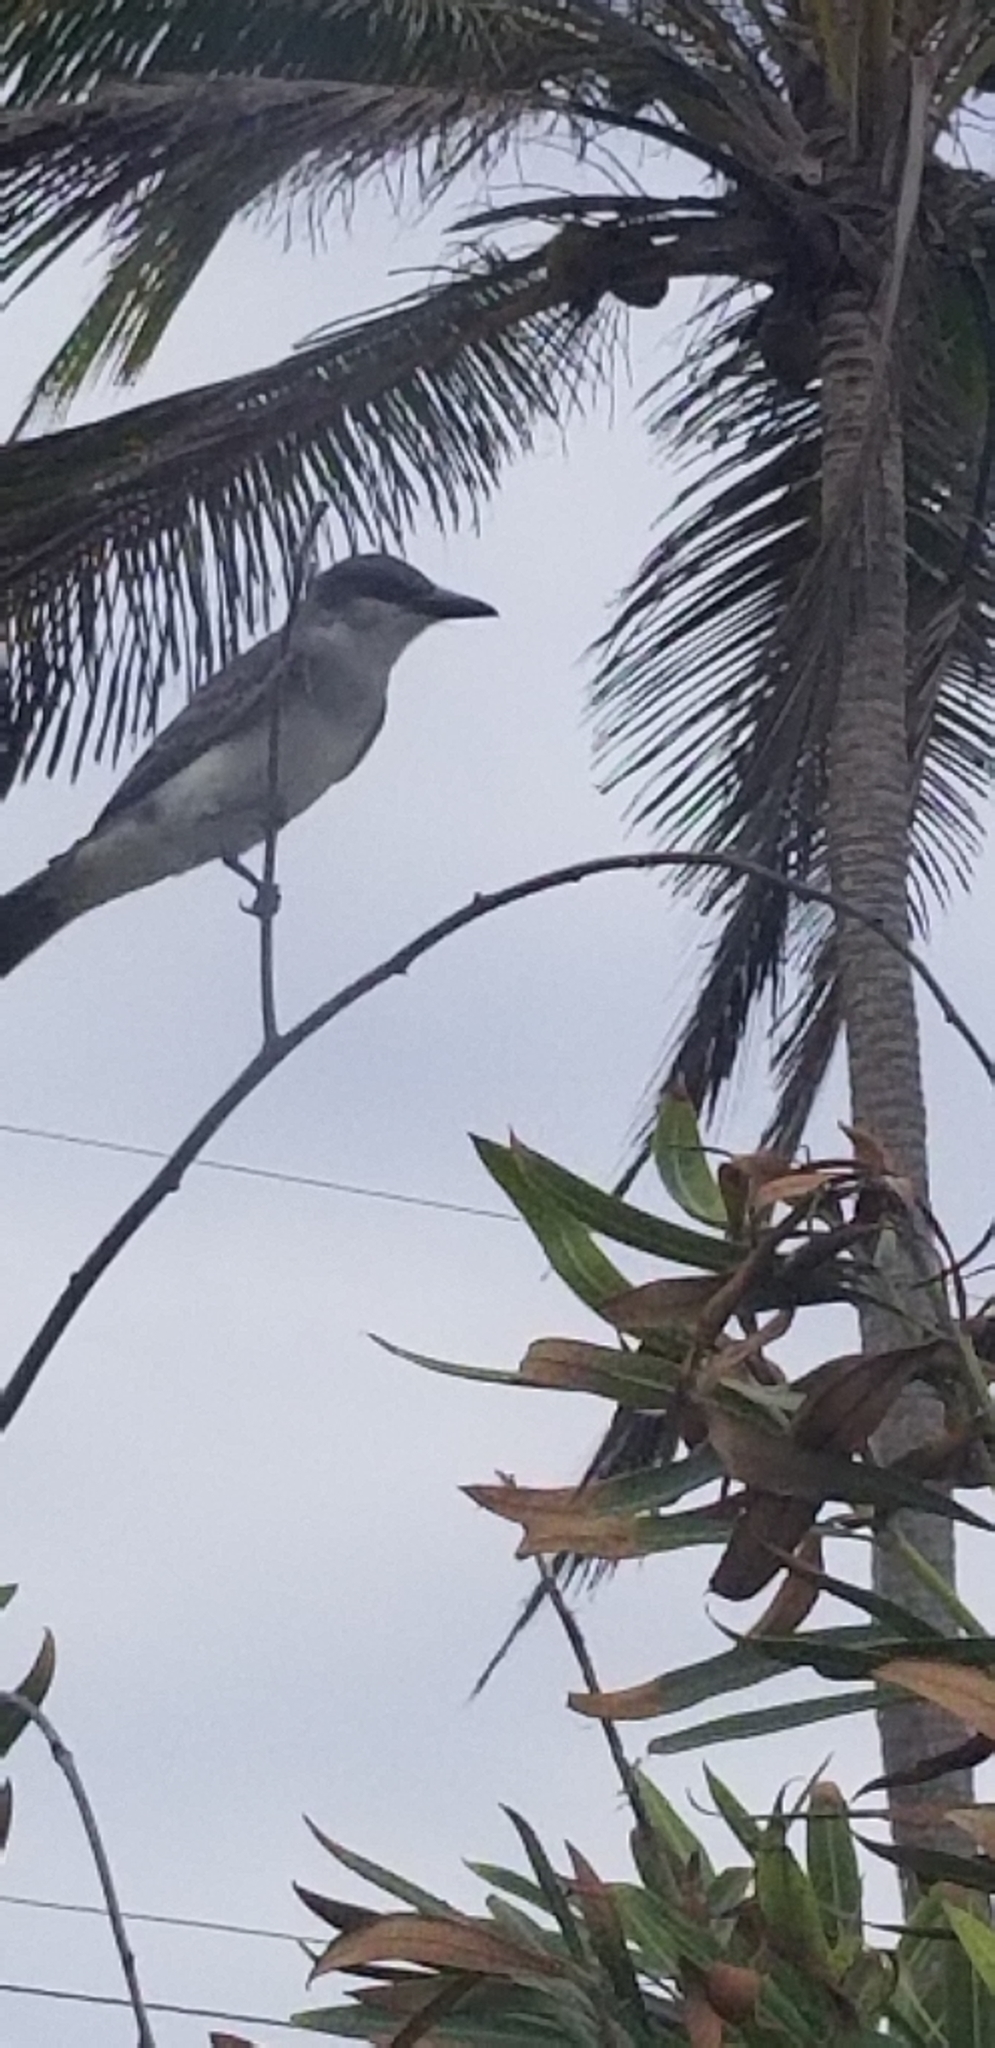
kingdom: Animalia
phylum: Chordata
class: Aves
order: Passeriformes
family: Tyrannidae
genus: Tyrannus
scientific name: Tyrannus dominicensis
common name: Gray kingbird
